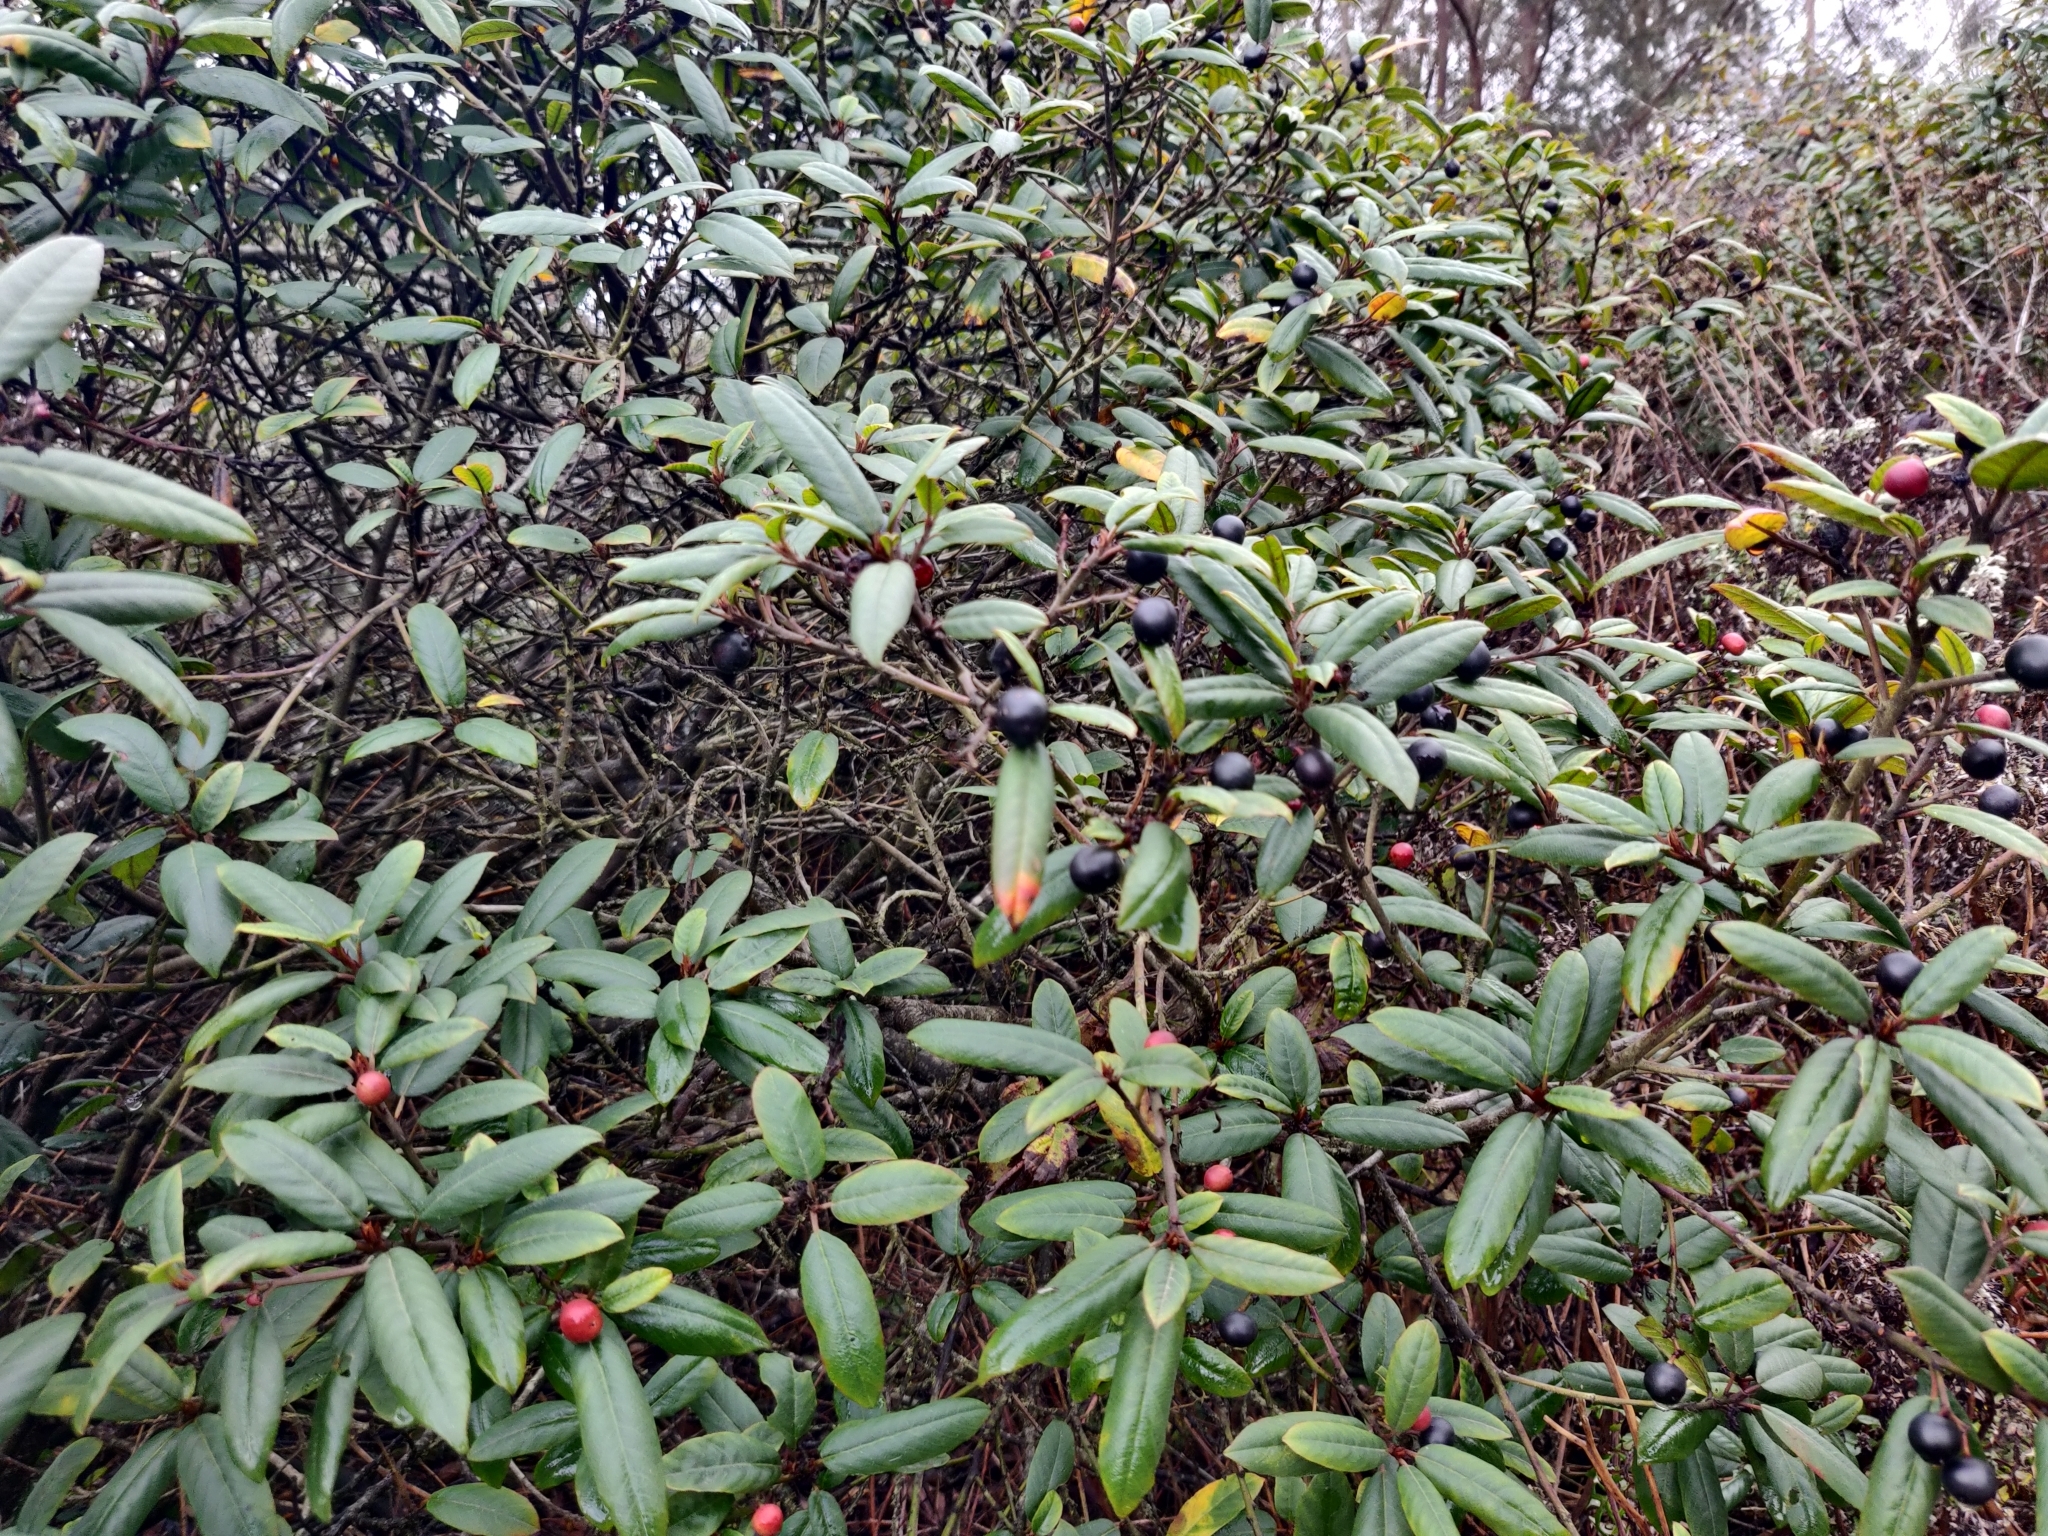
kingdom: Plantae
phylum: Tracheophyta
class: Magnoliopsida
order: Rosales
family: Rhamnaceae
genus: Frangula
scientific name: Frangula californica
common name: California buckthorn
